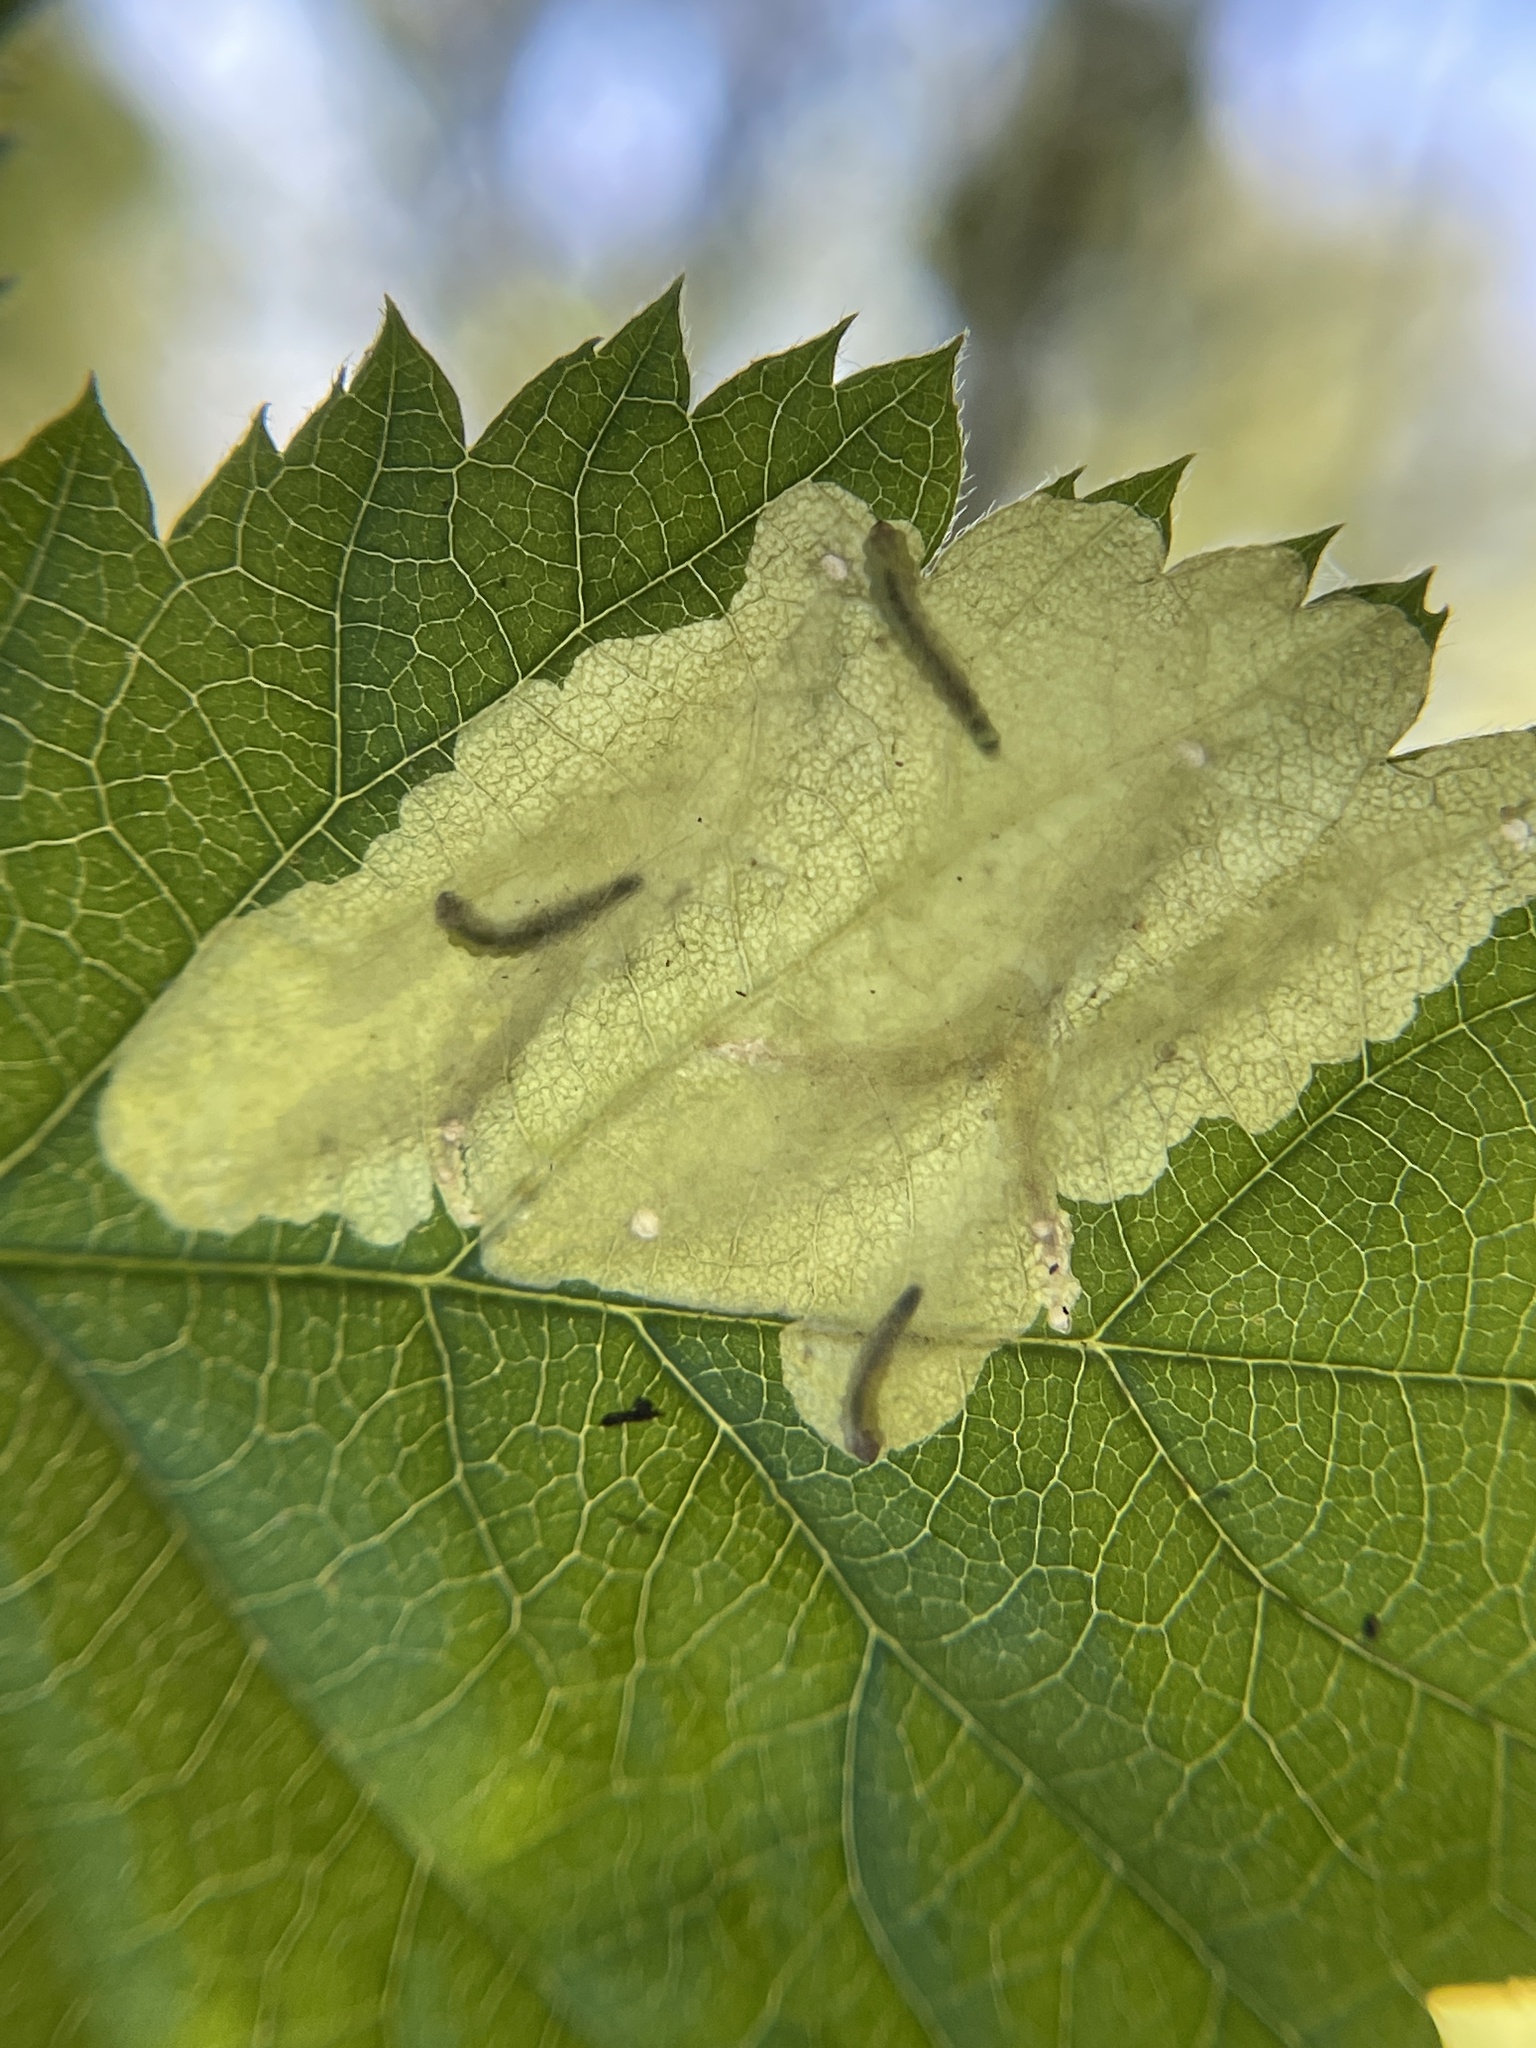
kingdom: Animalia
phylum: Arthropoda
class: Insecta
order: Lepidoptera
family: Tischeriidae
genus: Coptotriche
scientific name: Coptotriche aenea
